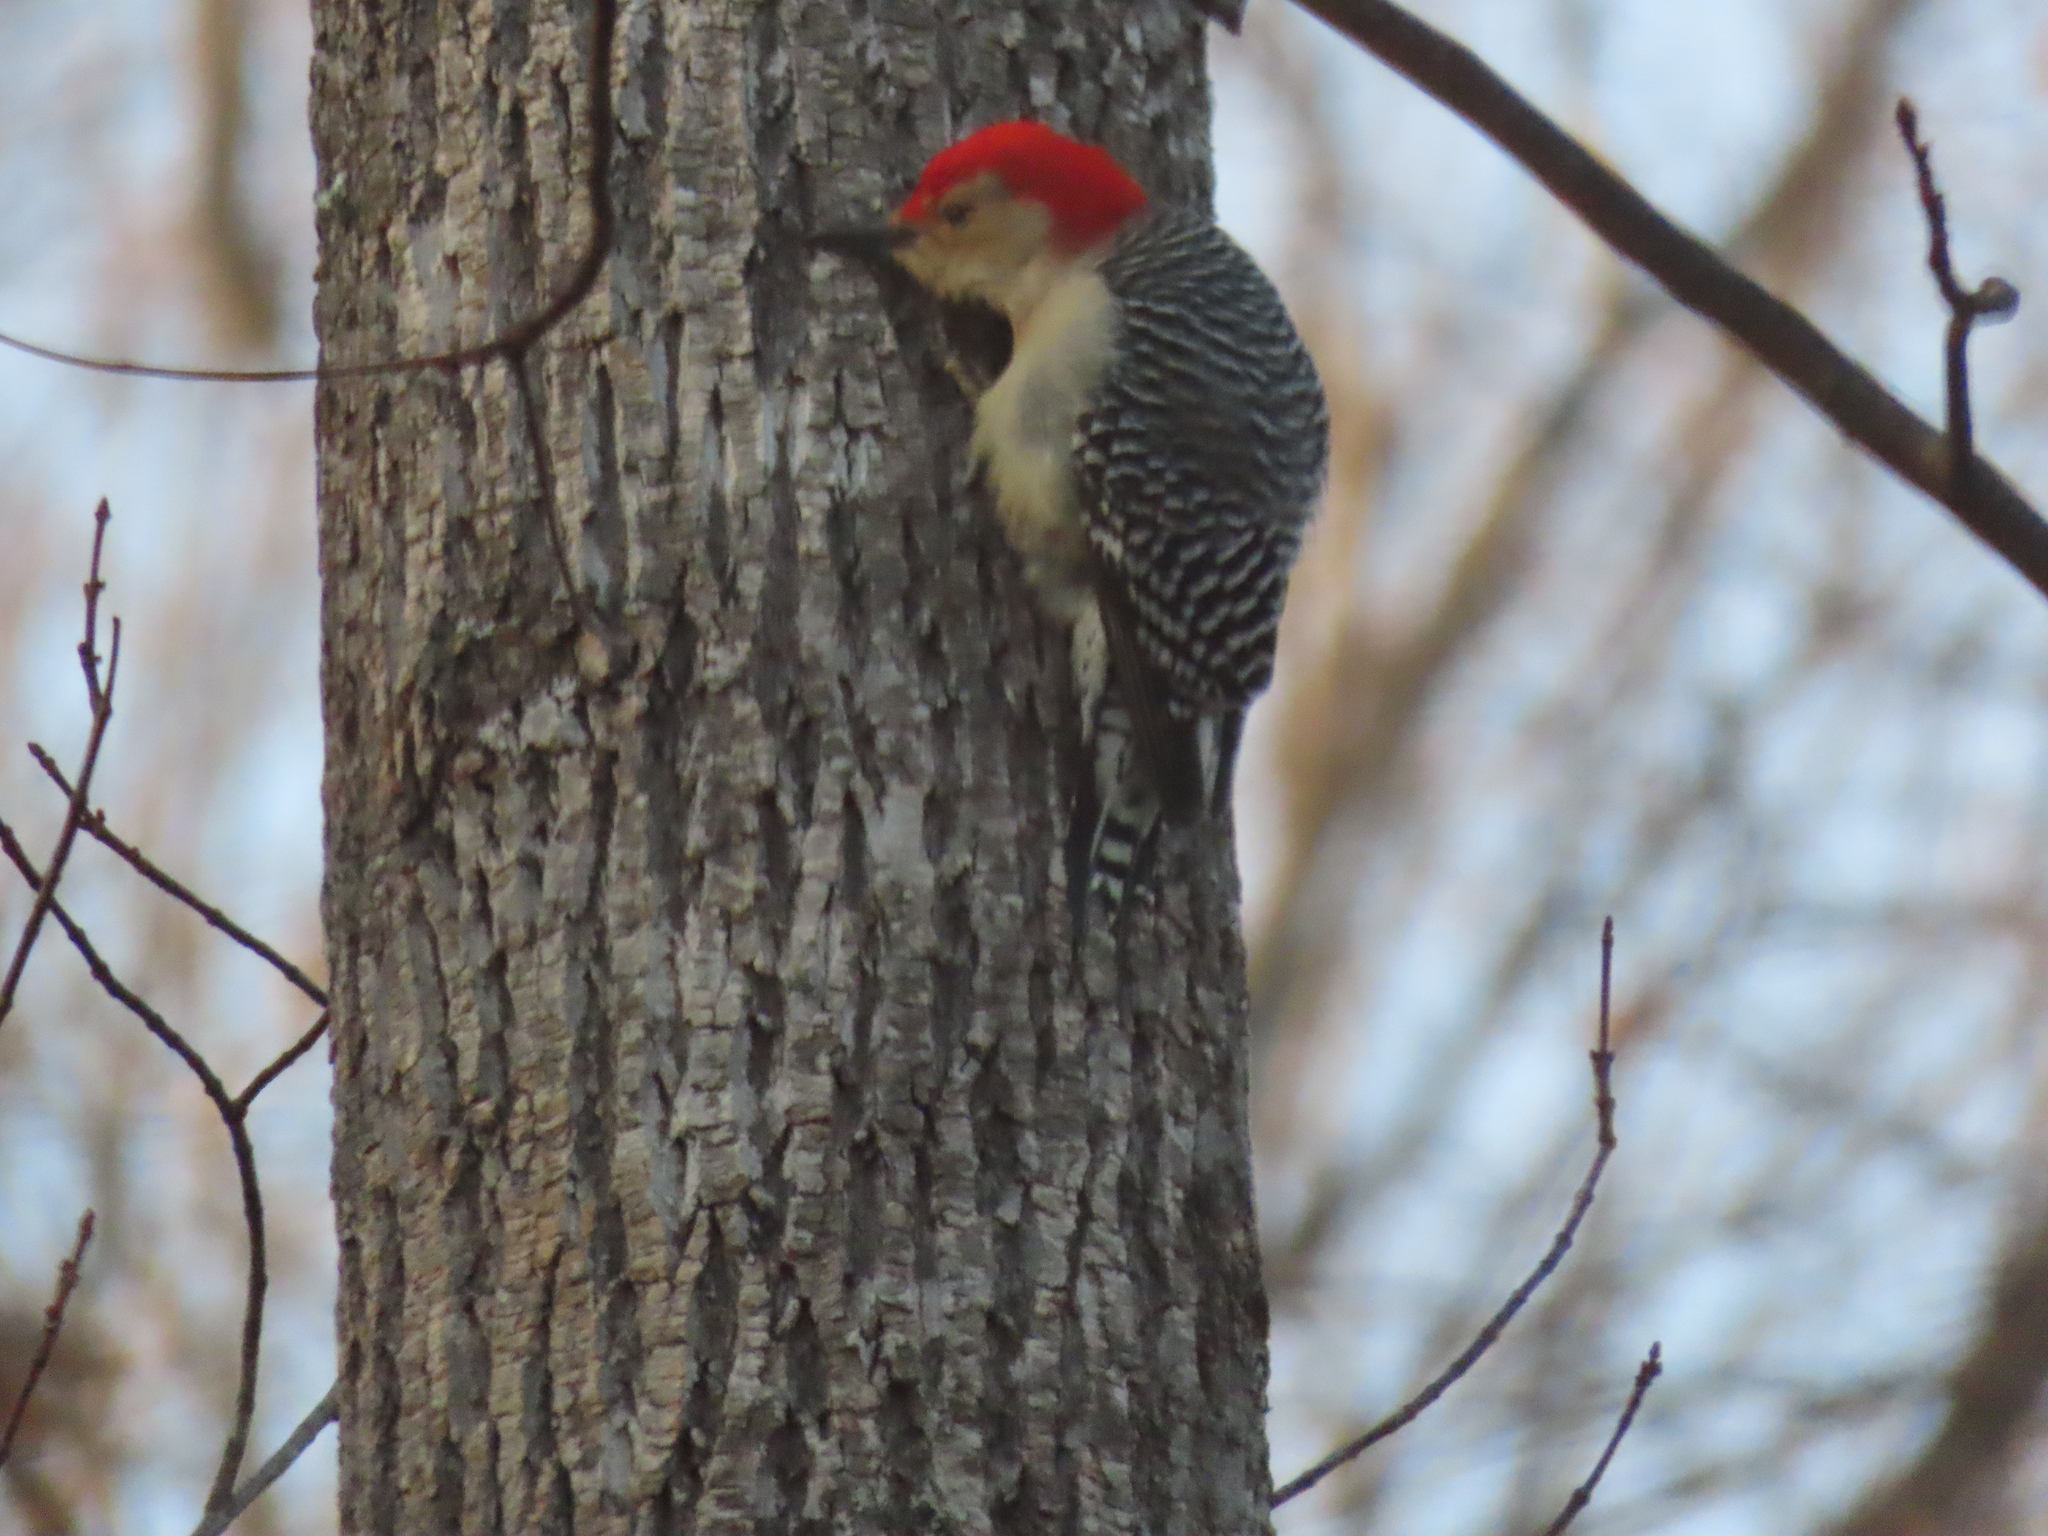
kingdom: Animalia
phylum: Chordata
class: Aves
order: Piciformes
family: Picidae
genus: Melanerpes
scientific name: Melanerpes carolinus
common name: Red-bellied woodpecker
